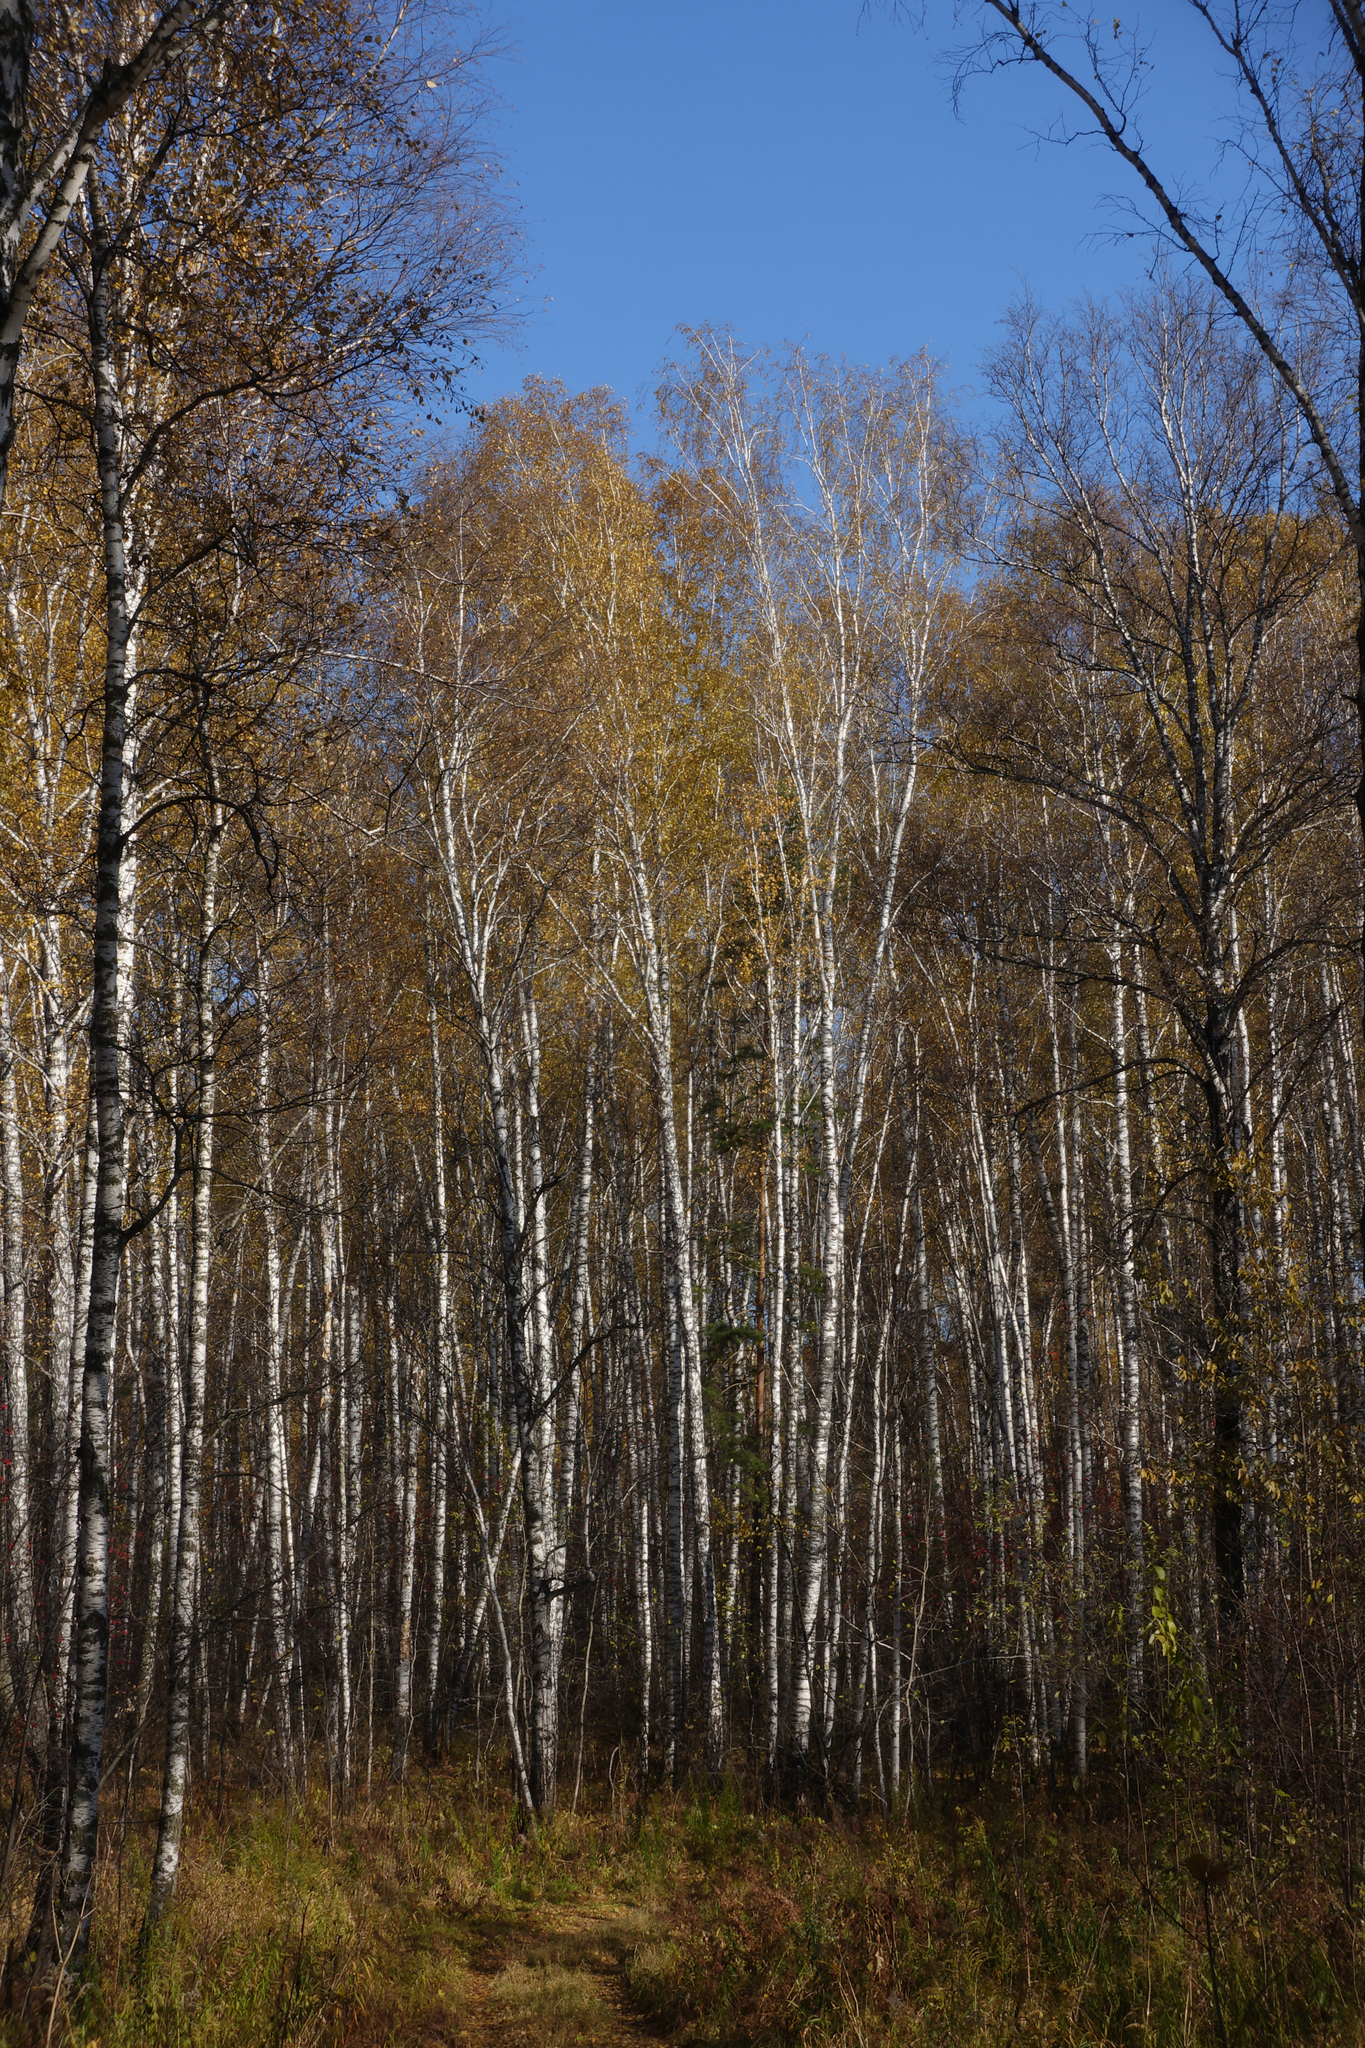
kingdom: Plantae
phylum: Tracheophyta
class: Magnoliopsida
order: Fagales
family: Betulaceae
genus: Betula
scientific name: Betula pendula
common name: Silver birch
